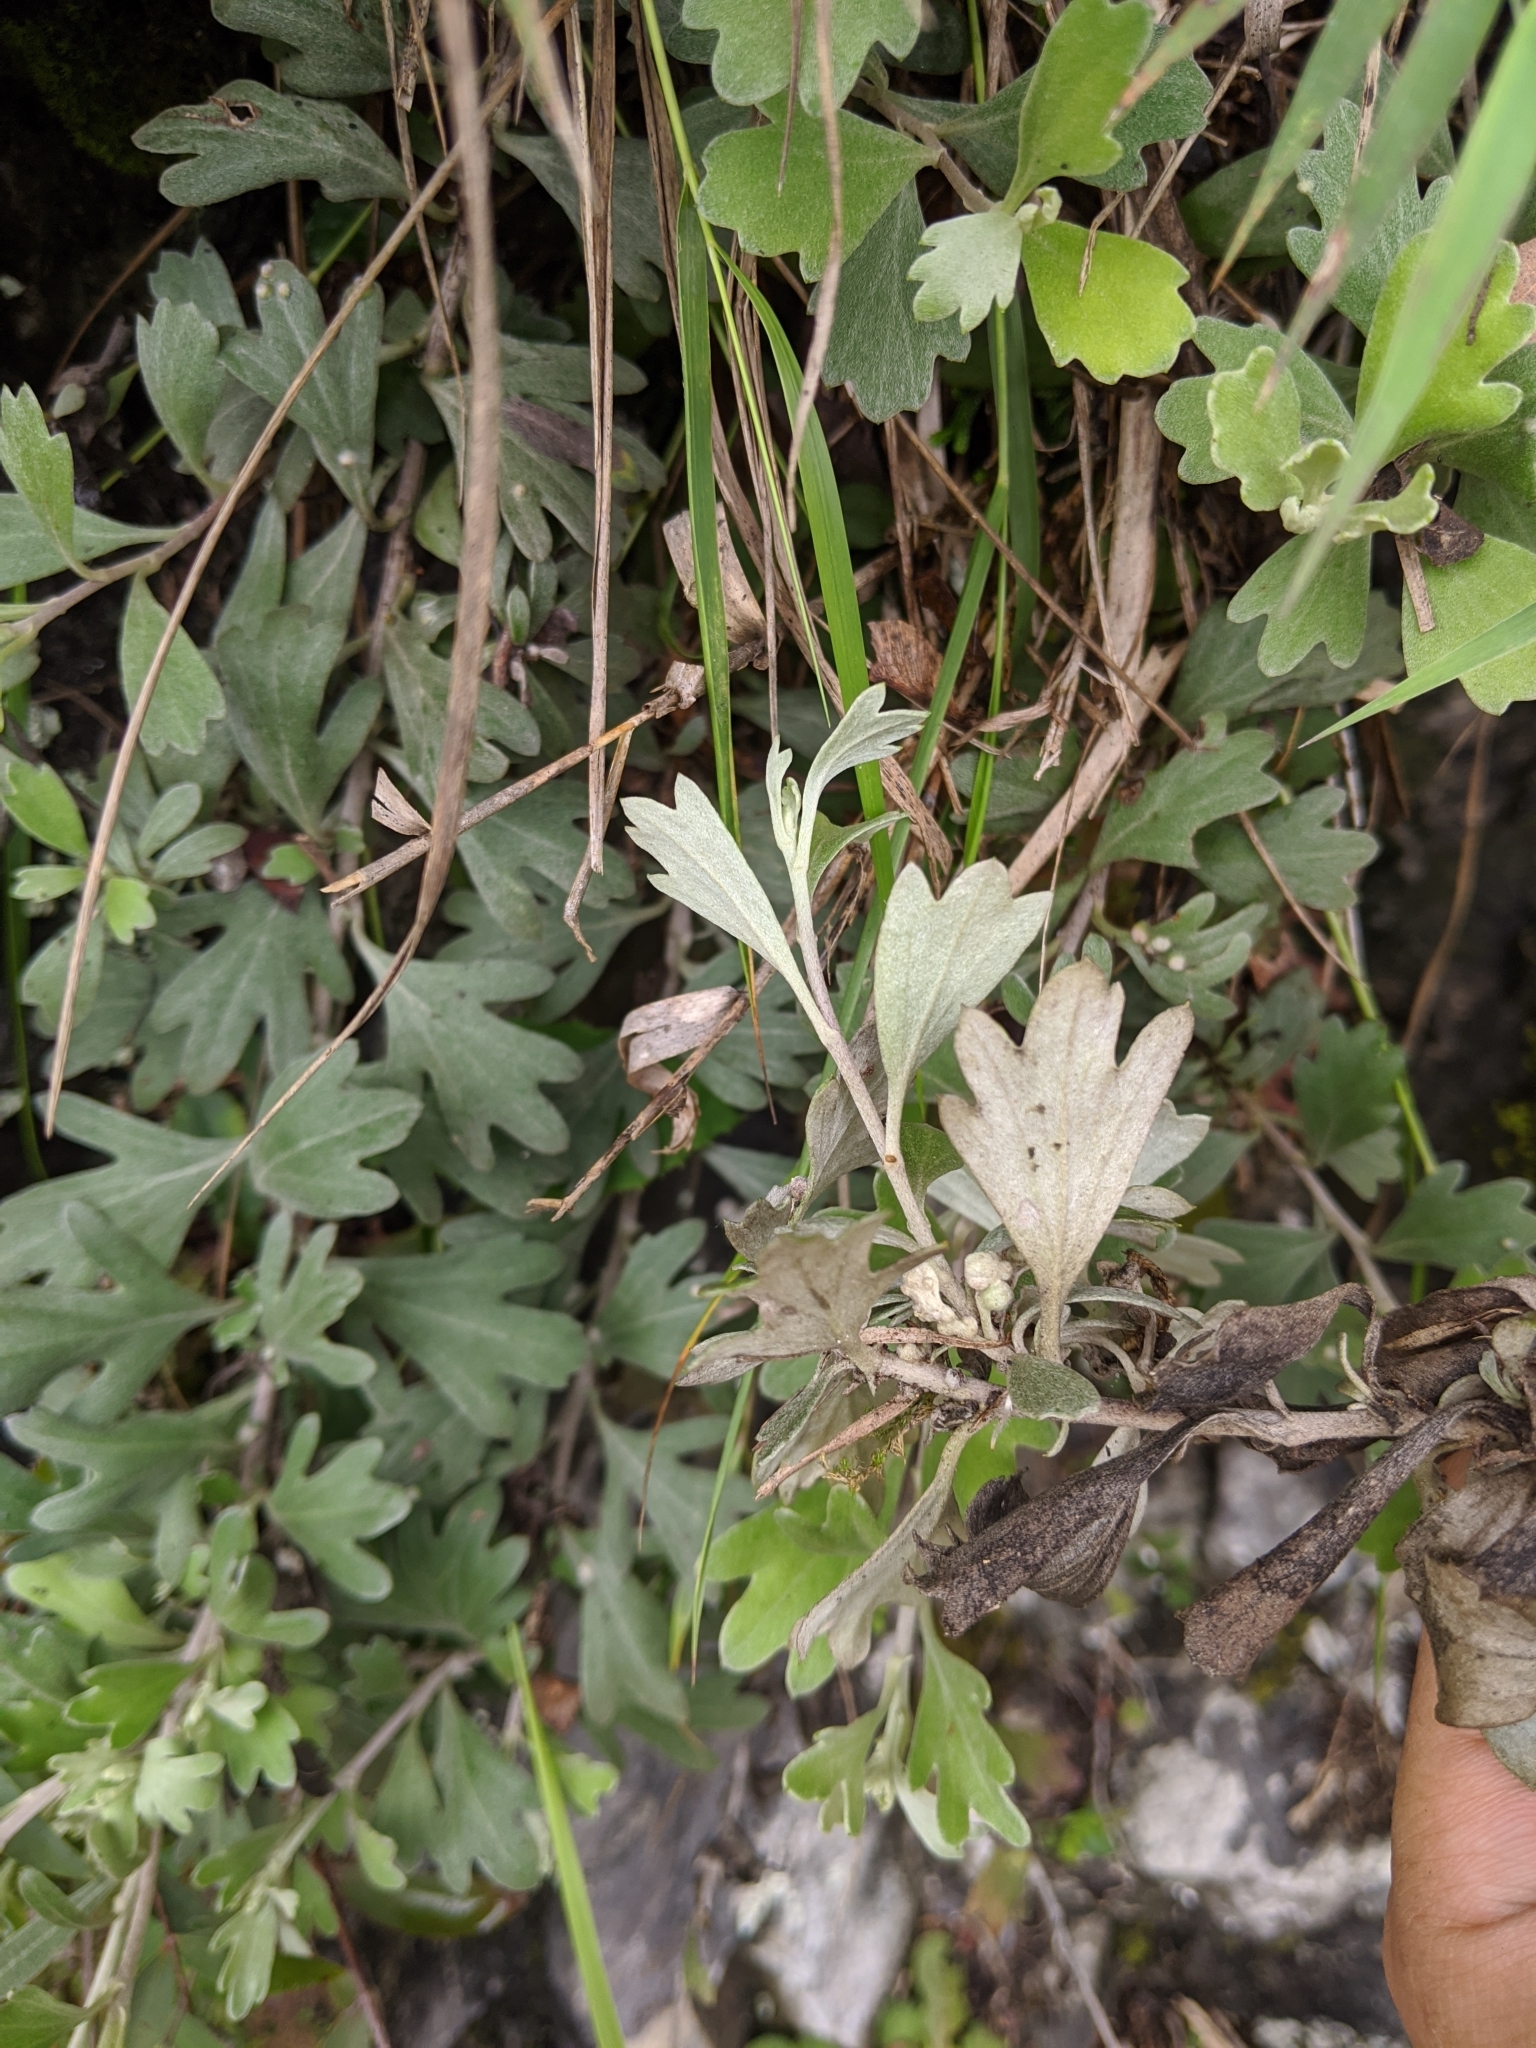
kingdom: Plantae
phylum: Tracheophyta
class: Magnoliopsida
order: Asterales
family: Asteraceae
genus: Chrysanthemum
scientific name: Chrysanthemum morii
